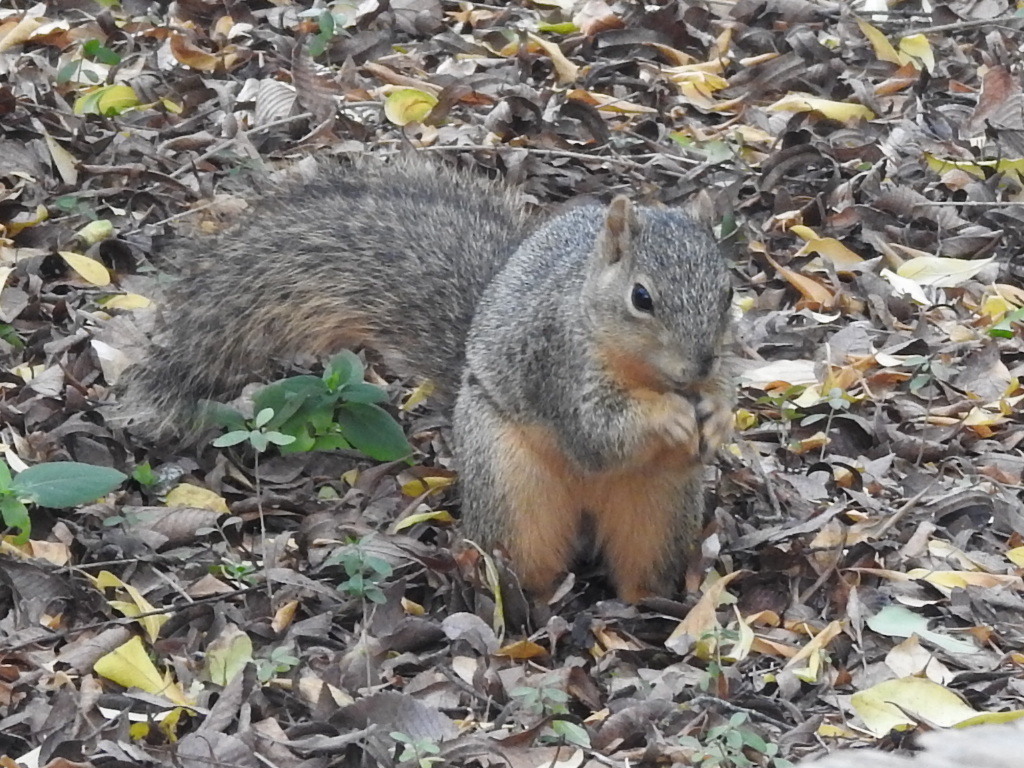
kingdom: Animalia
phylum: Chordata
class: Mammalia
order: Rodentia
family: Sciuridae
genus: Sciurus
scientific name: Sciurus niger
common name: Fox squirrel
